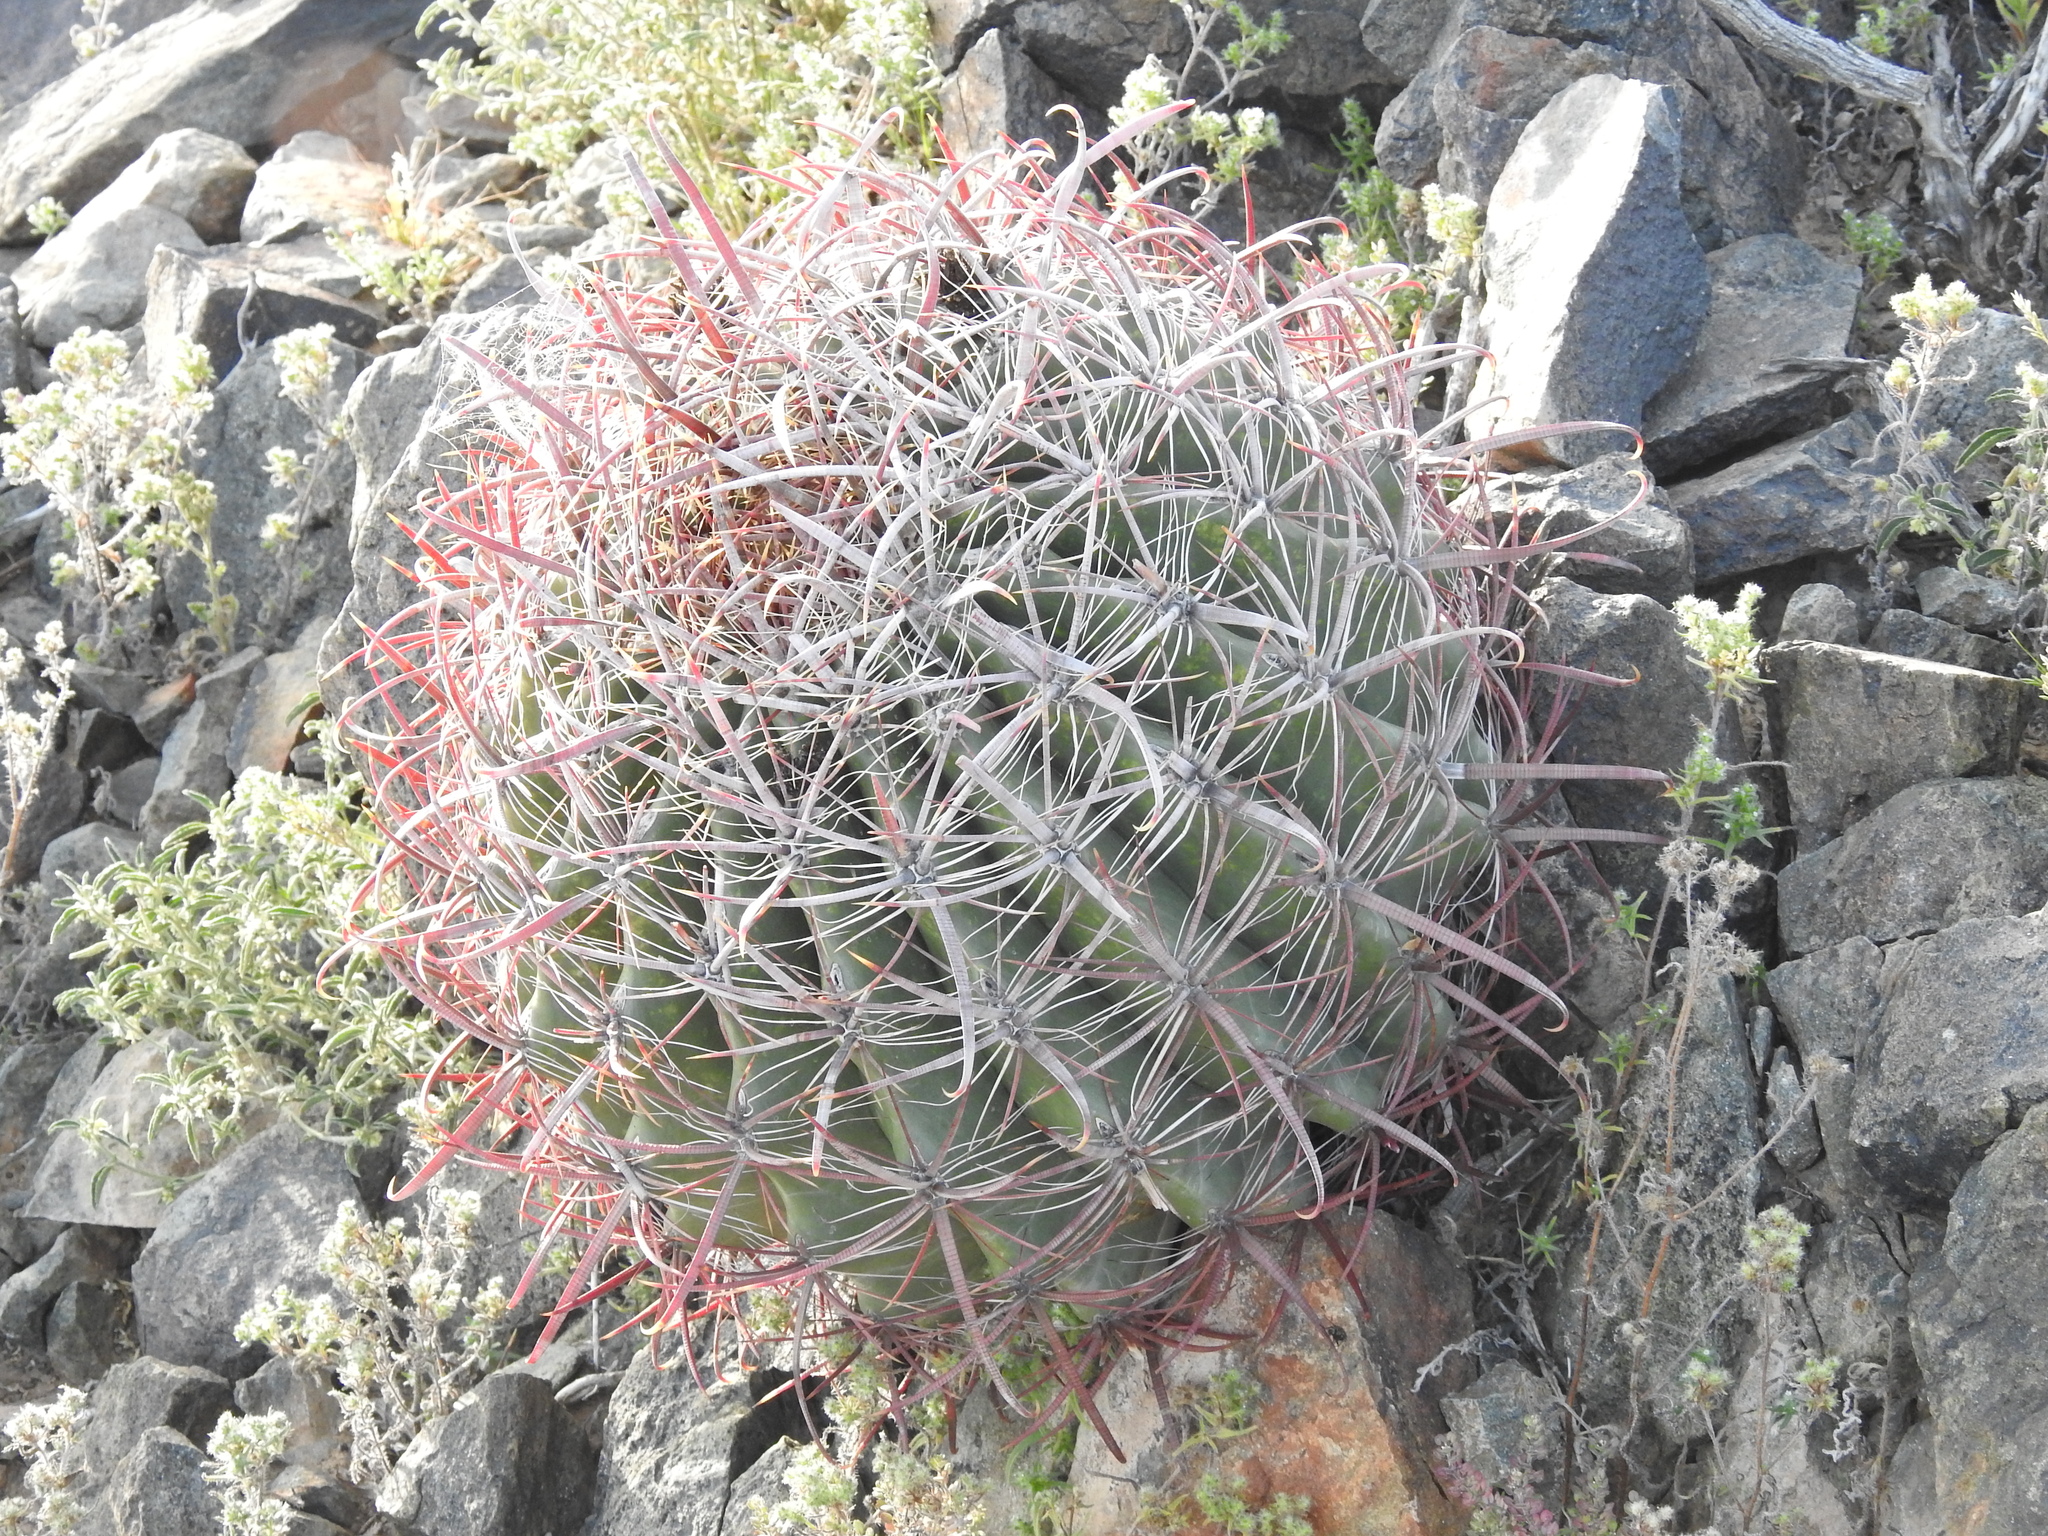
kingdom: Plantae
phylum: Tracheophyta
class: Magnoliopsida
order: Caryophyllales
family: Cactaceae
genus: Ferocactus
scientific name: Ferocactus cylindraceus
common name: California barrel cactus
